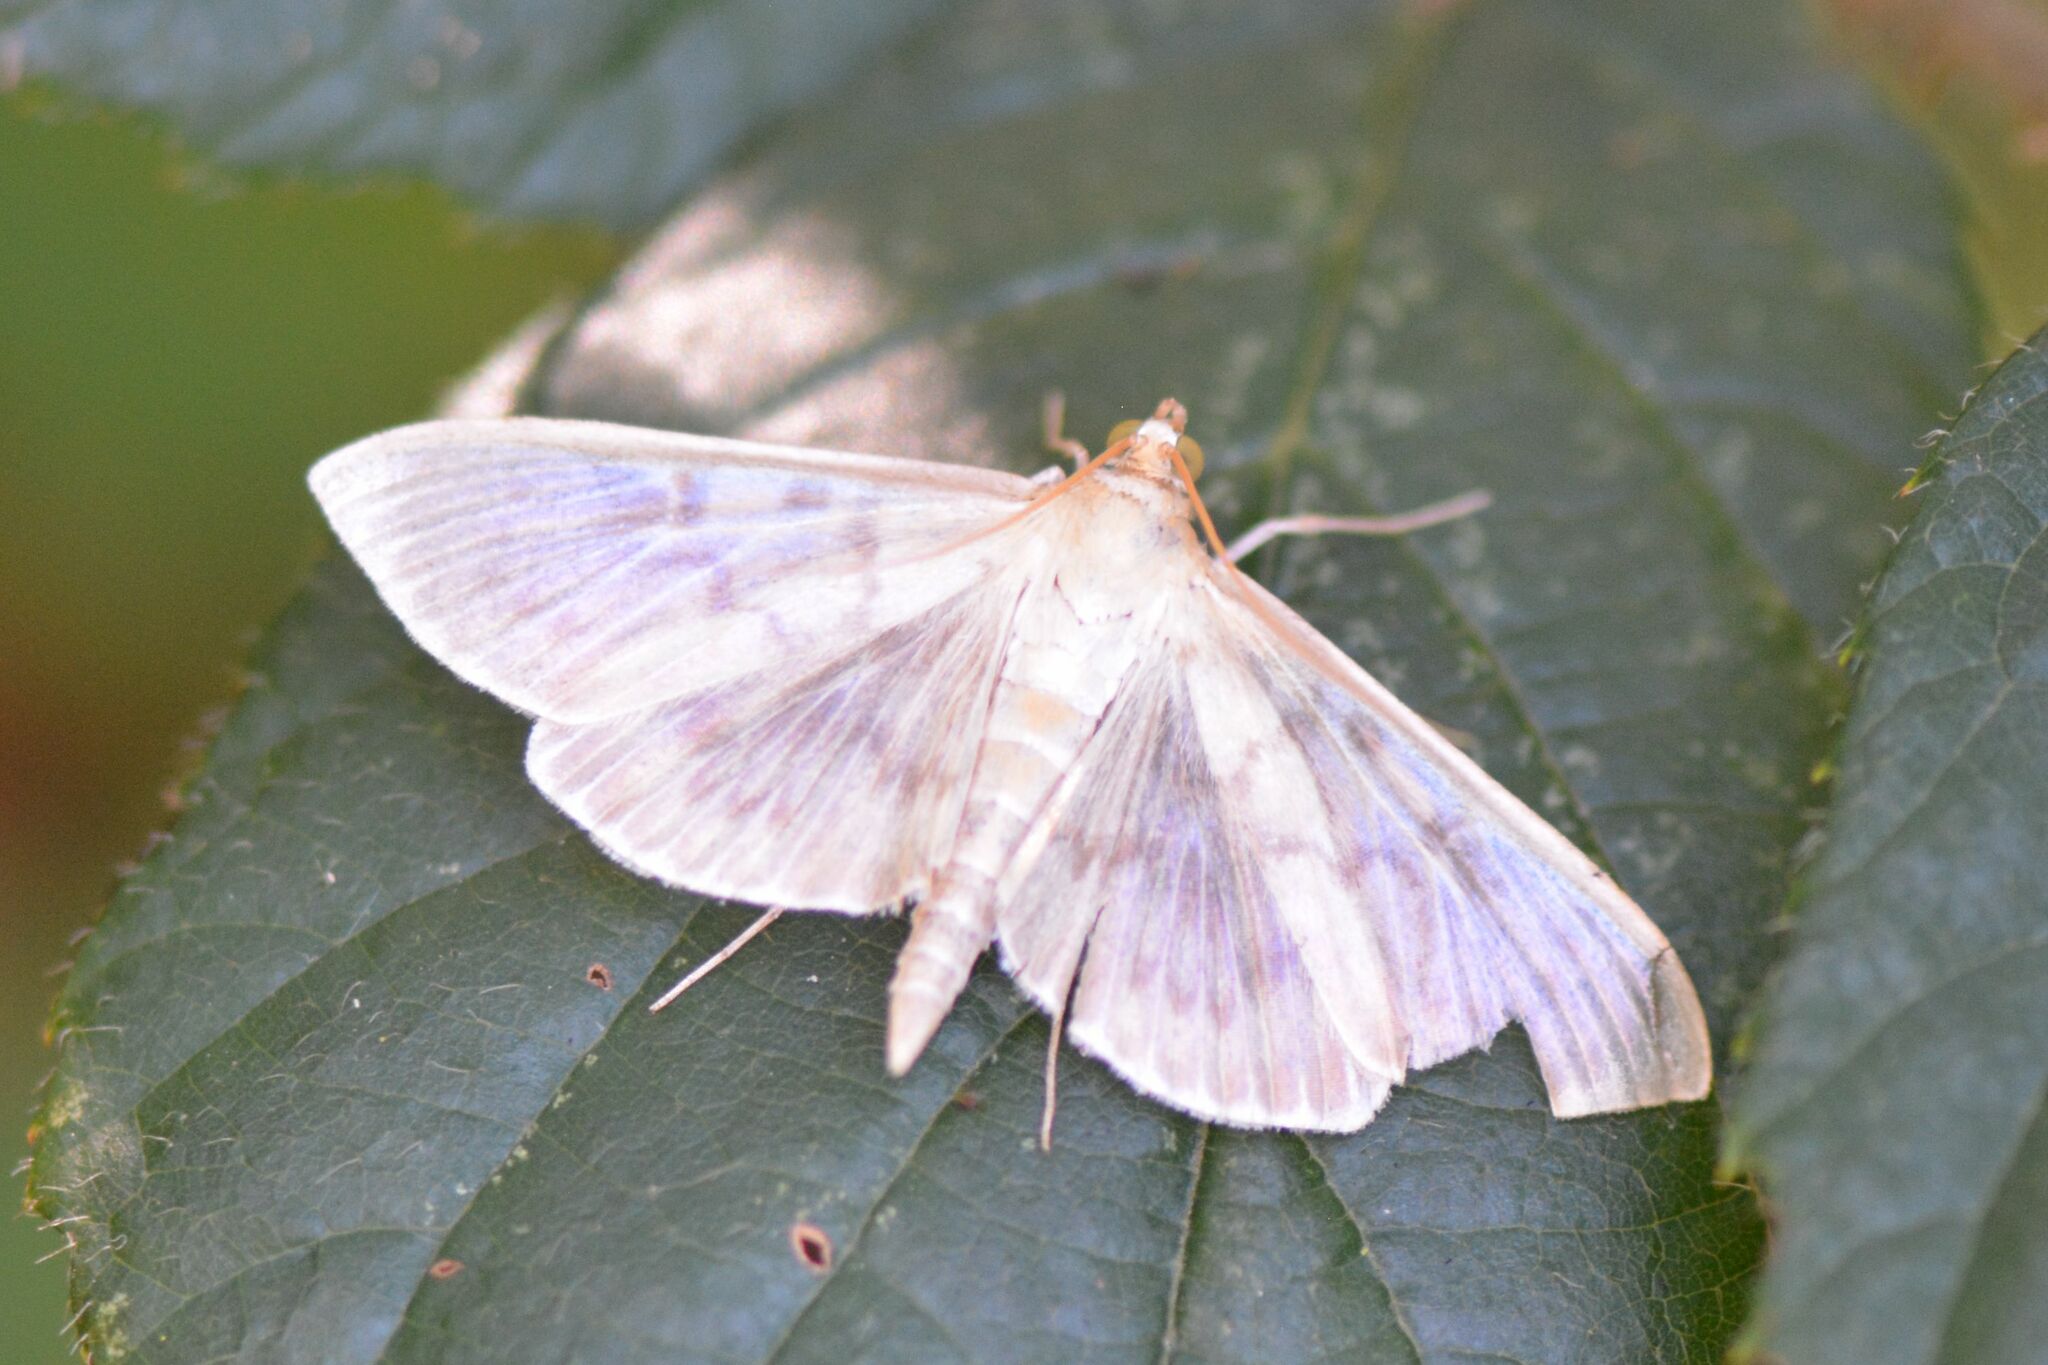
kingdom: Animalia
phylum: Arthropoda
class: Insecta
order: Lepidoptera
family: Crambidae
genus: Patania
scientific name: Patania ruralis
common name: Mother of pearl
